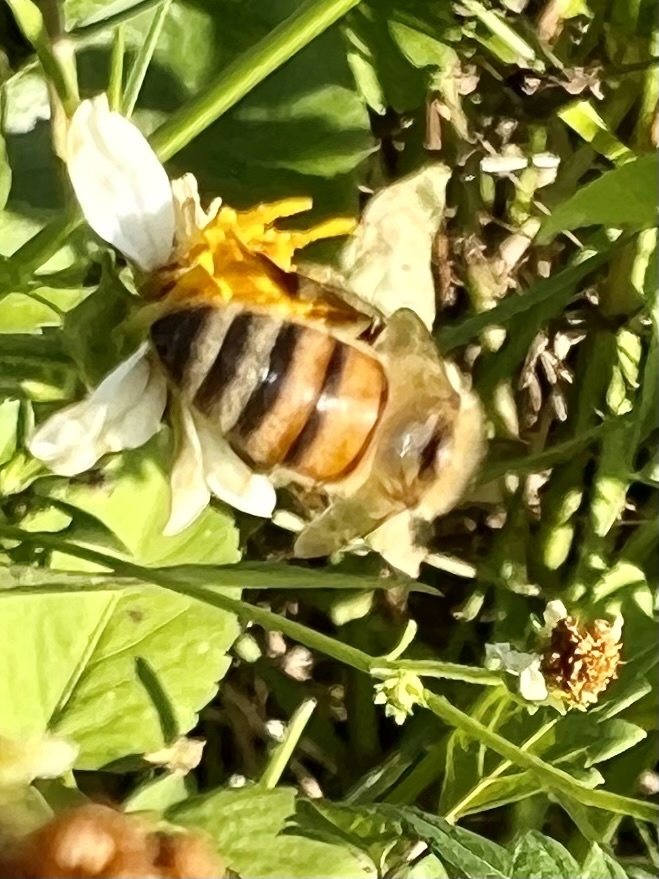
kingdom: Animalia
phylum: Arthropoda
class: Insecta
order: Hymenoptera
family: Apidae
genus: Apis
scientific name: Apis mellifera
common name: Honey bee
